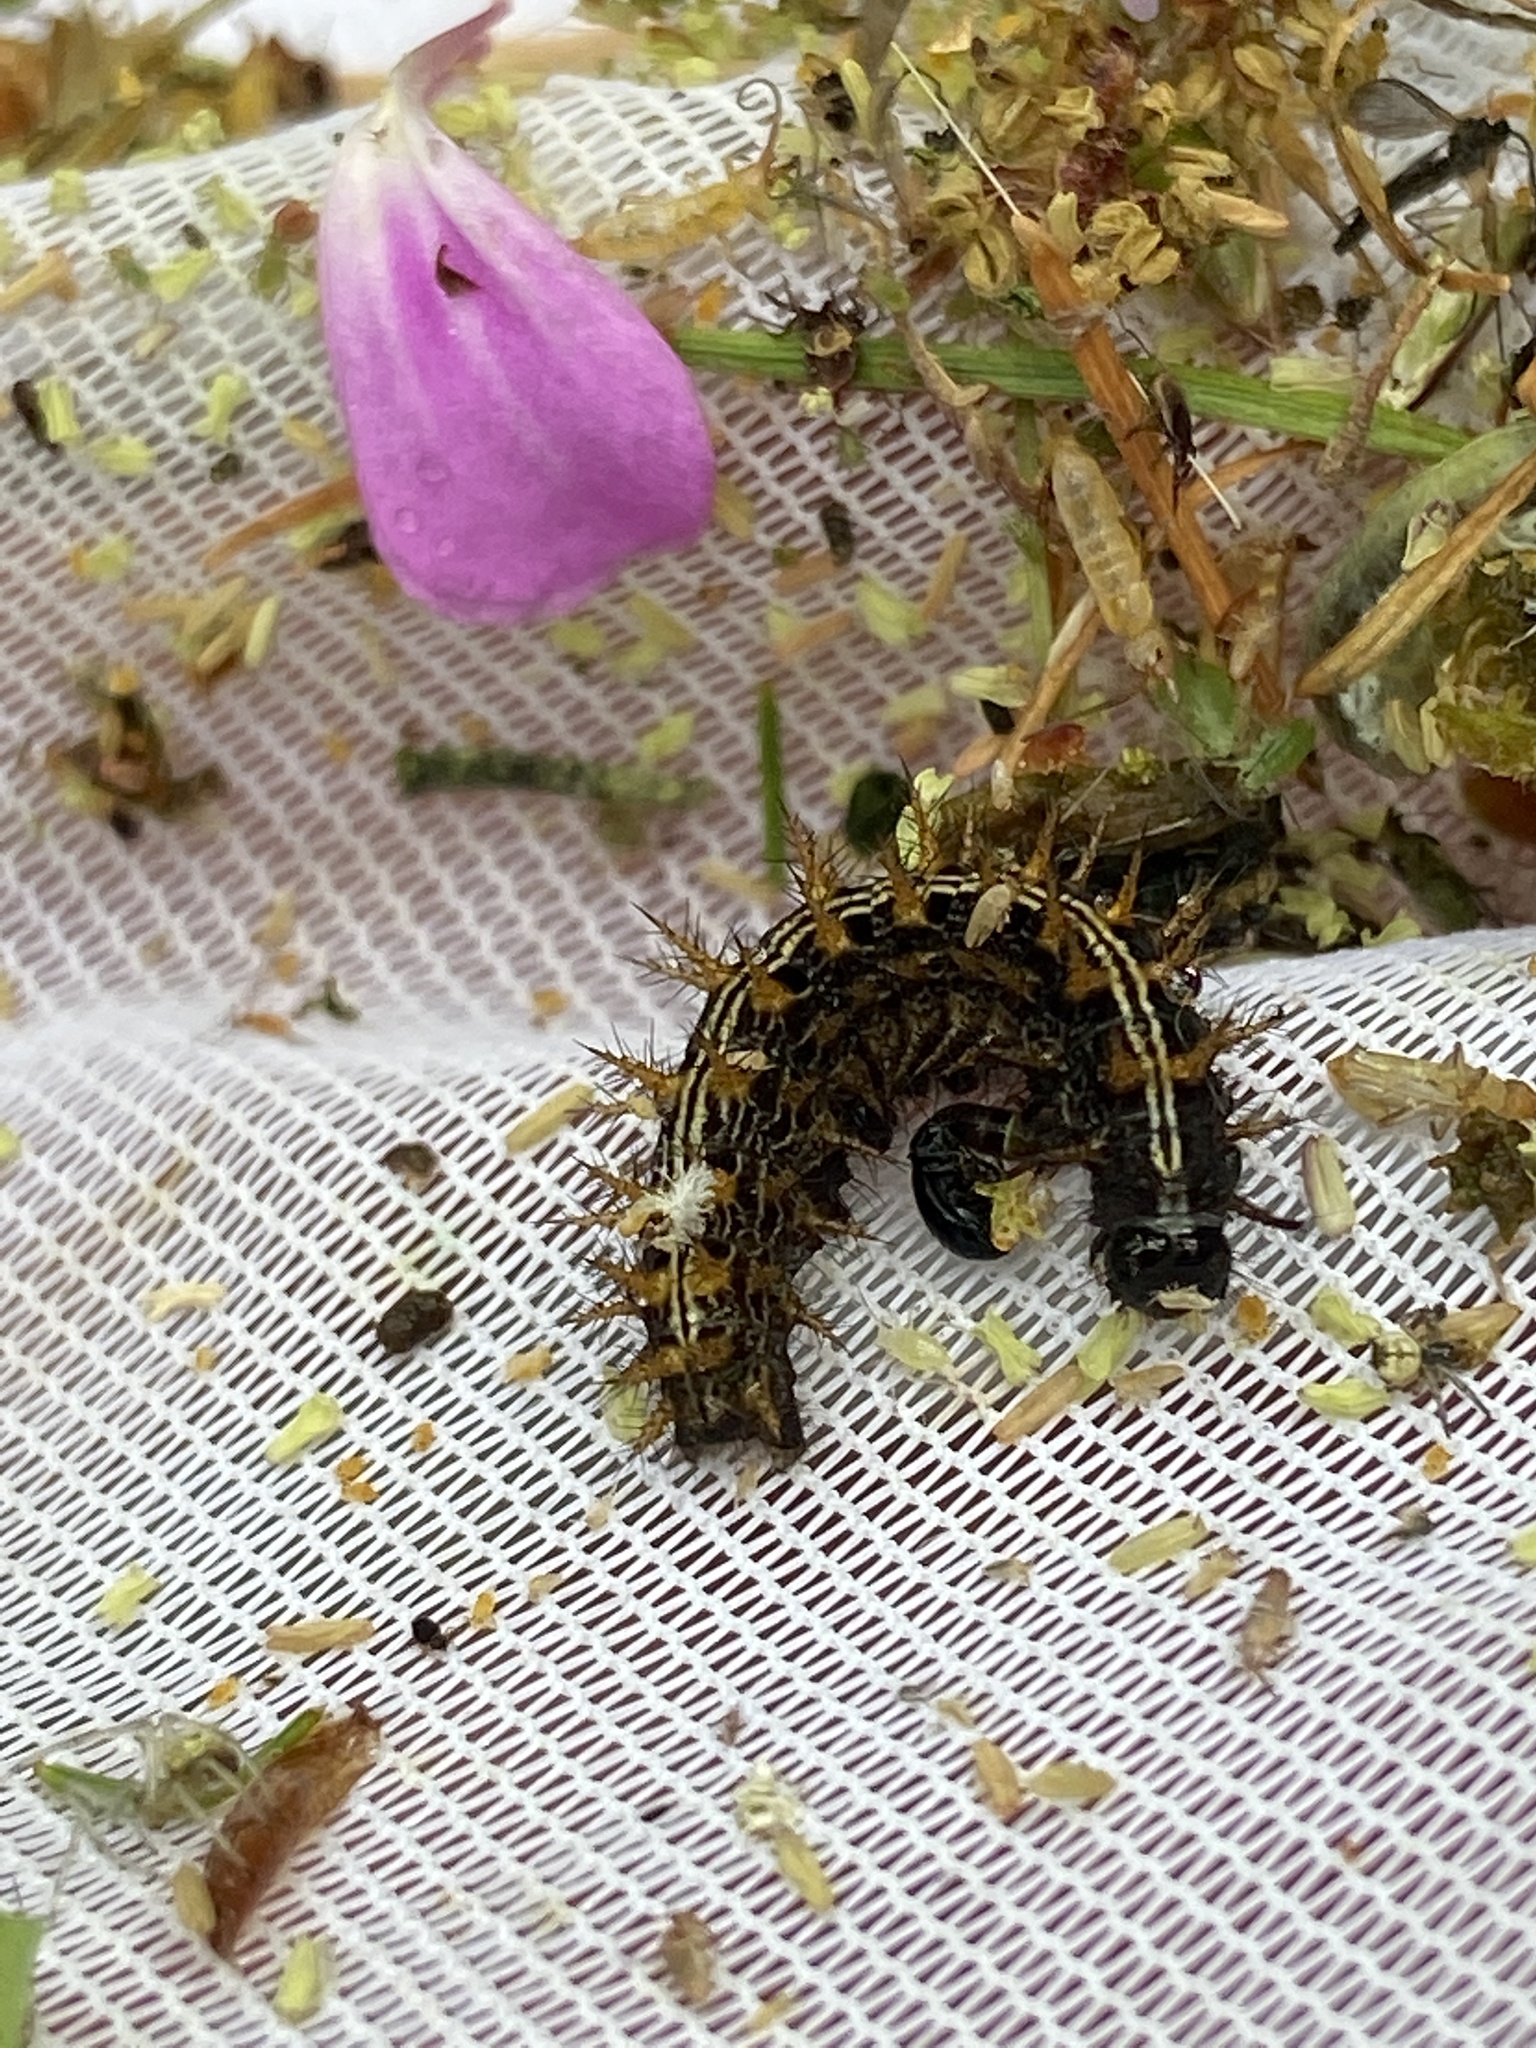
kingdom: Animalia
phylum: Arthropoda
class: Insecta
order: Lepidoptera
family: Nymphalidae
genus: Argynnis
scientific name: Argynnis paphia
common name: Silver-washed fritillary
